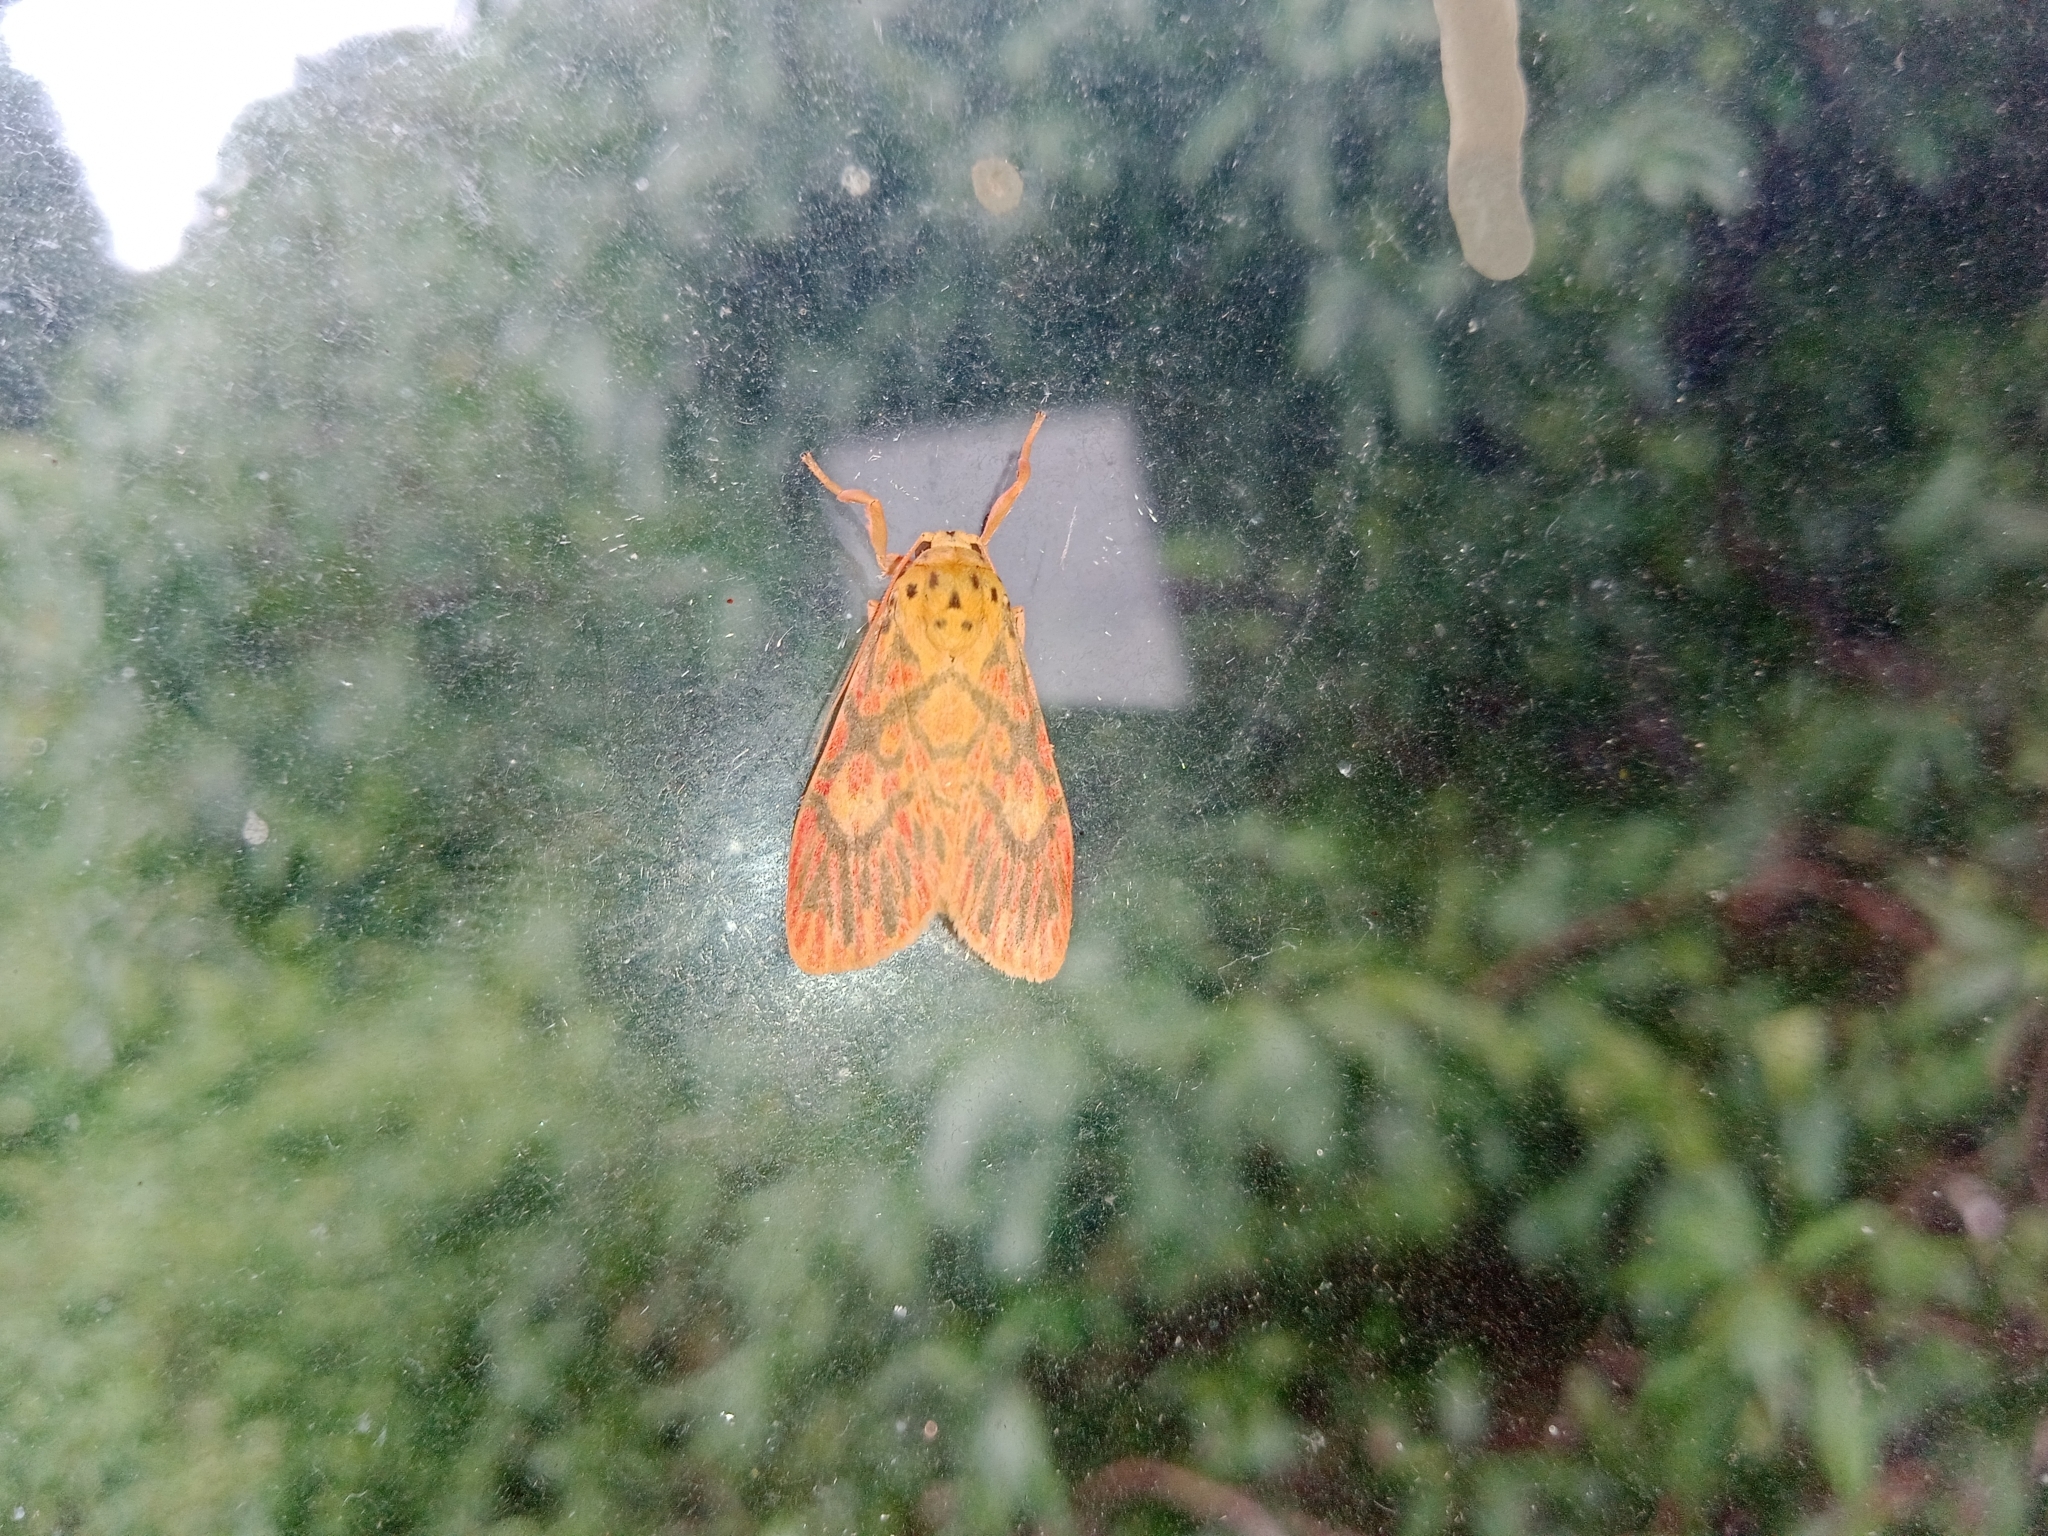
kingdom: Animalia
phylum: Arthropoda
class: Insecta
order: Lepidoptera
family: Erebidae
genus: Ammatho
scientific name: Ammatho cuneonotatus
